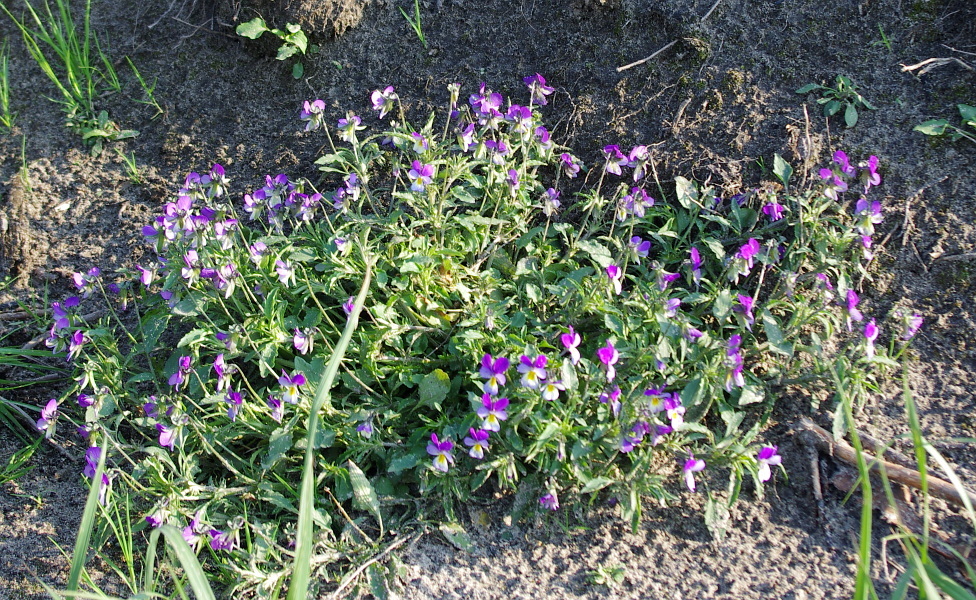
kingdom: Plantae
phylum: Tracheophyta
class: Magnoliopsida
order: Malpighiales
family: Violaceae
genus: Viola
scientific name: Viola tricolor
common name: Pansy
